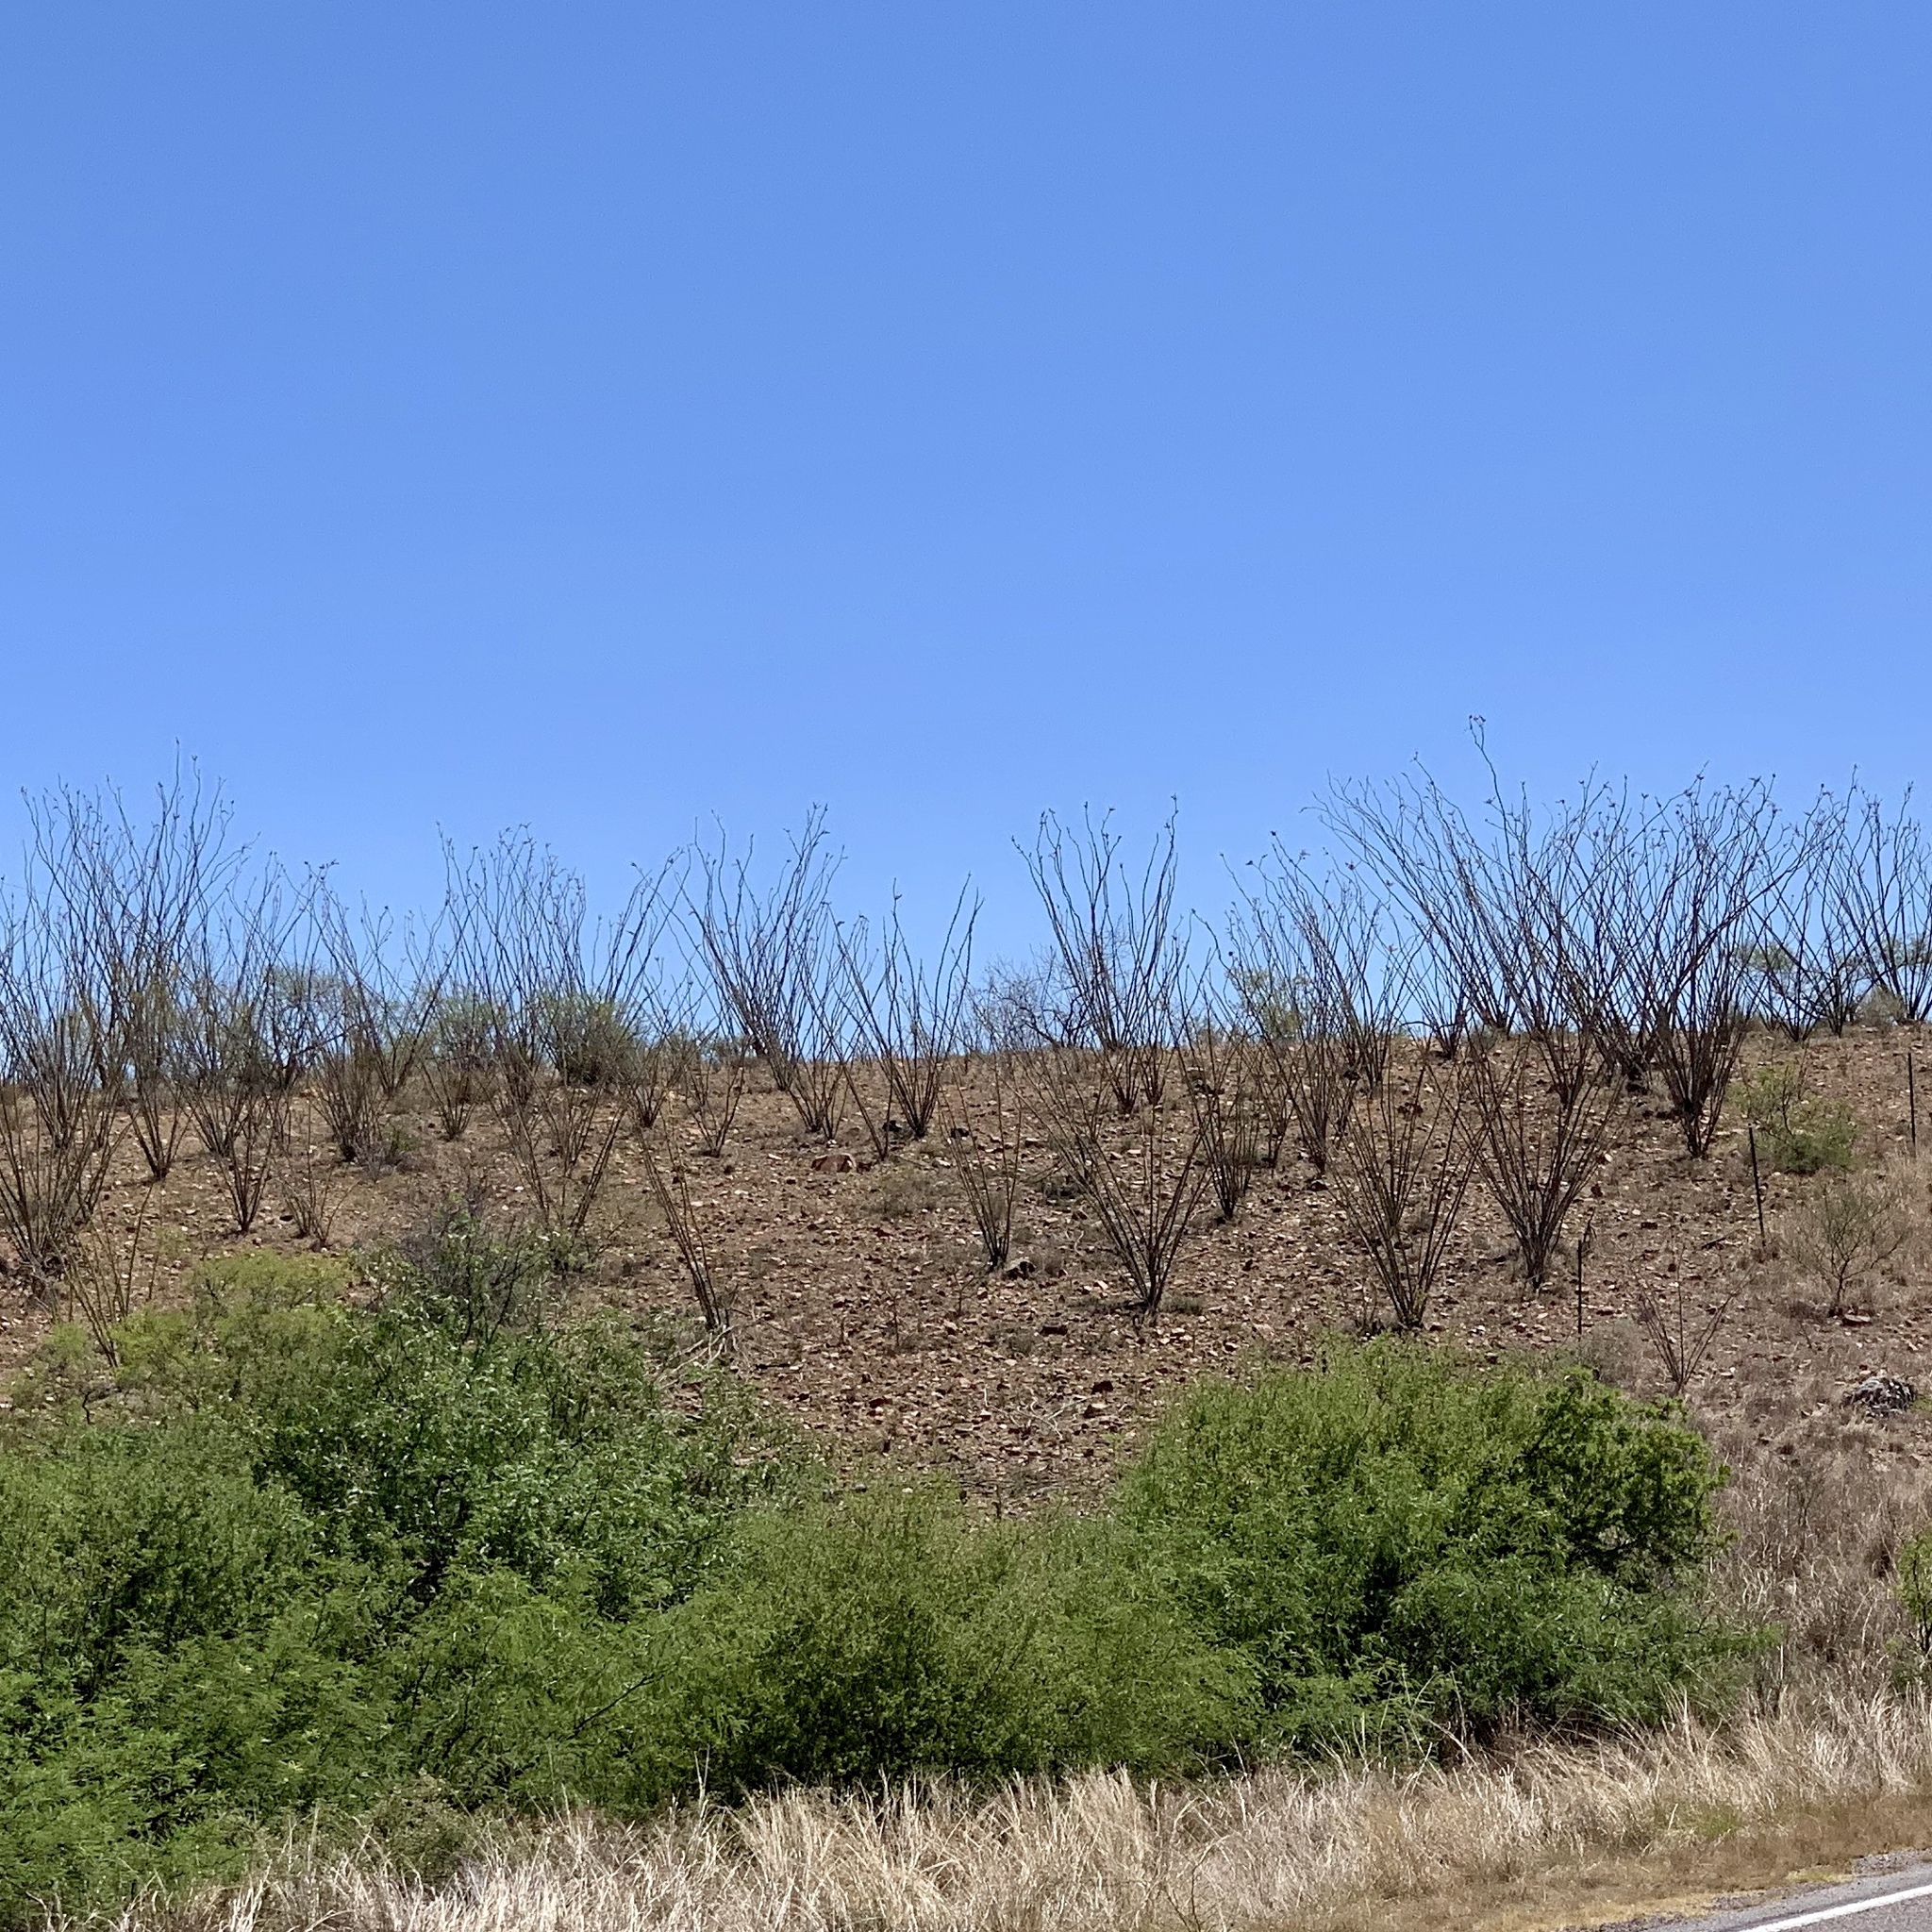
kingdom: Plantae
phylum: Tracheophyta
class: Magnoliopsida
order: Ericales
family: Fouquieriaceae
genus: Fouquieria
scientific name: Fouquieria splendens
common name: Vine-cactus
